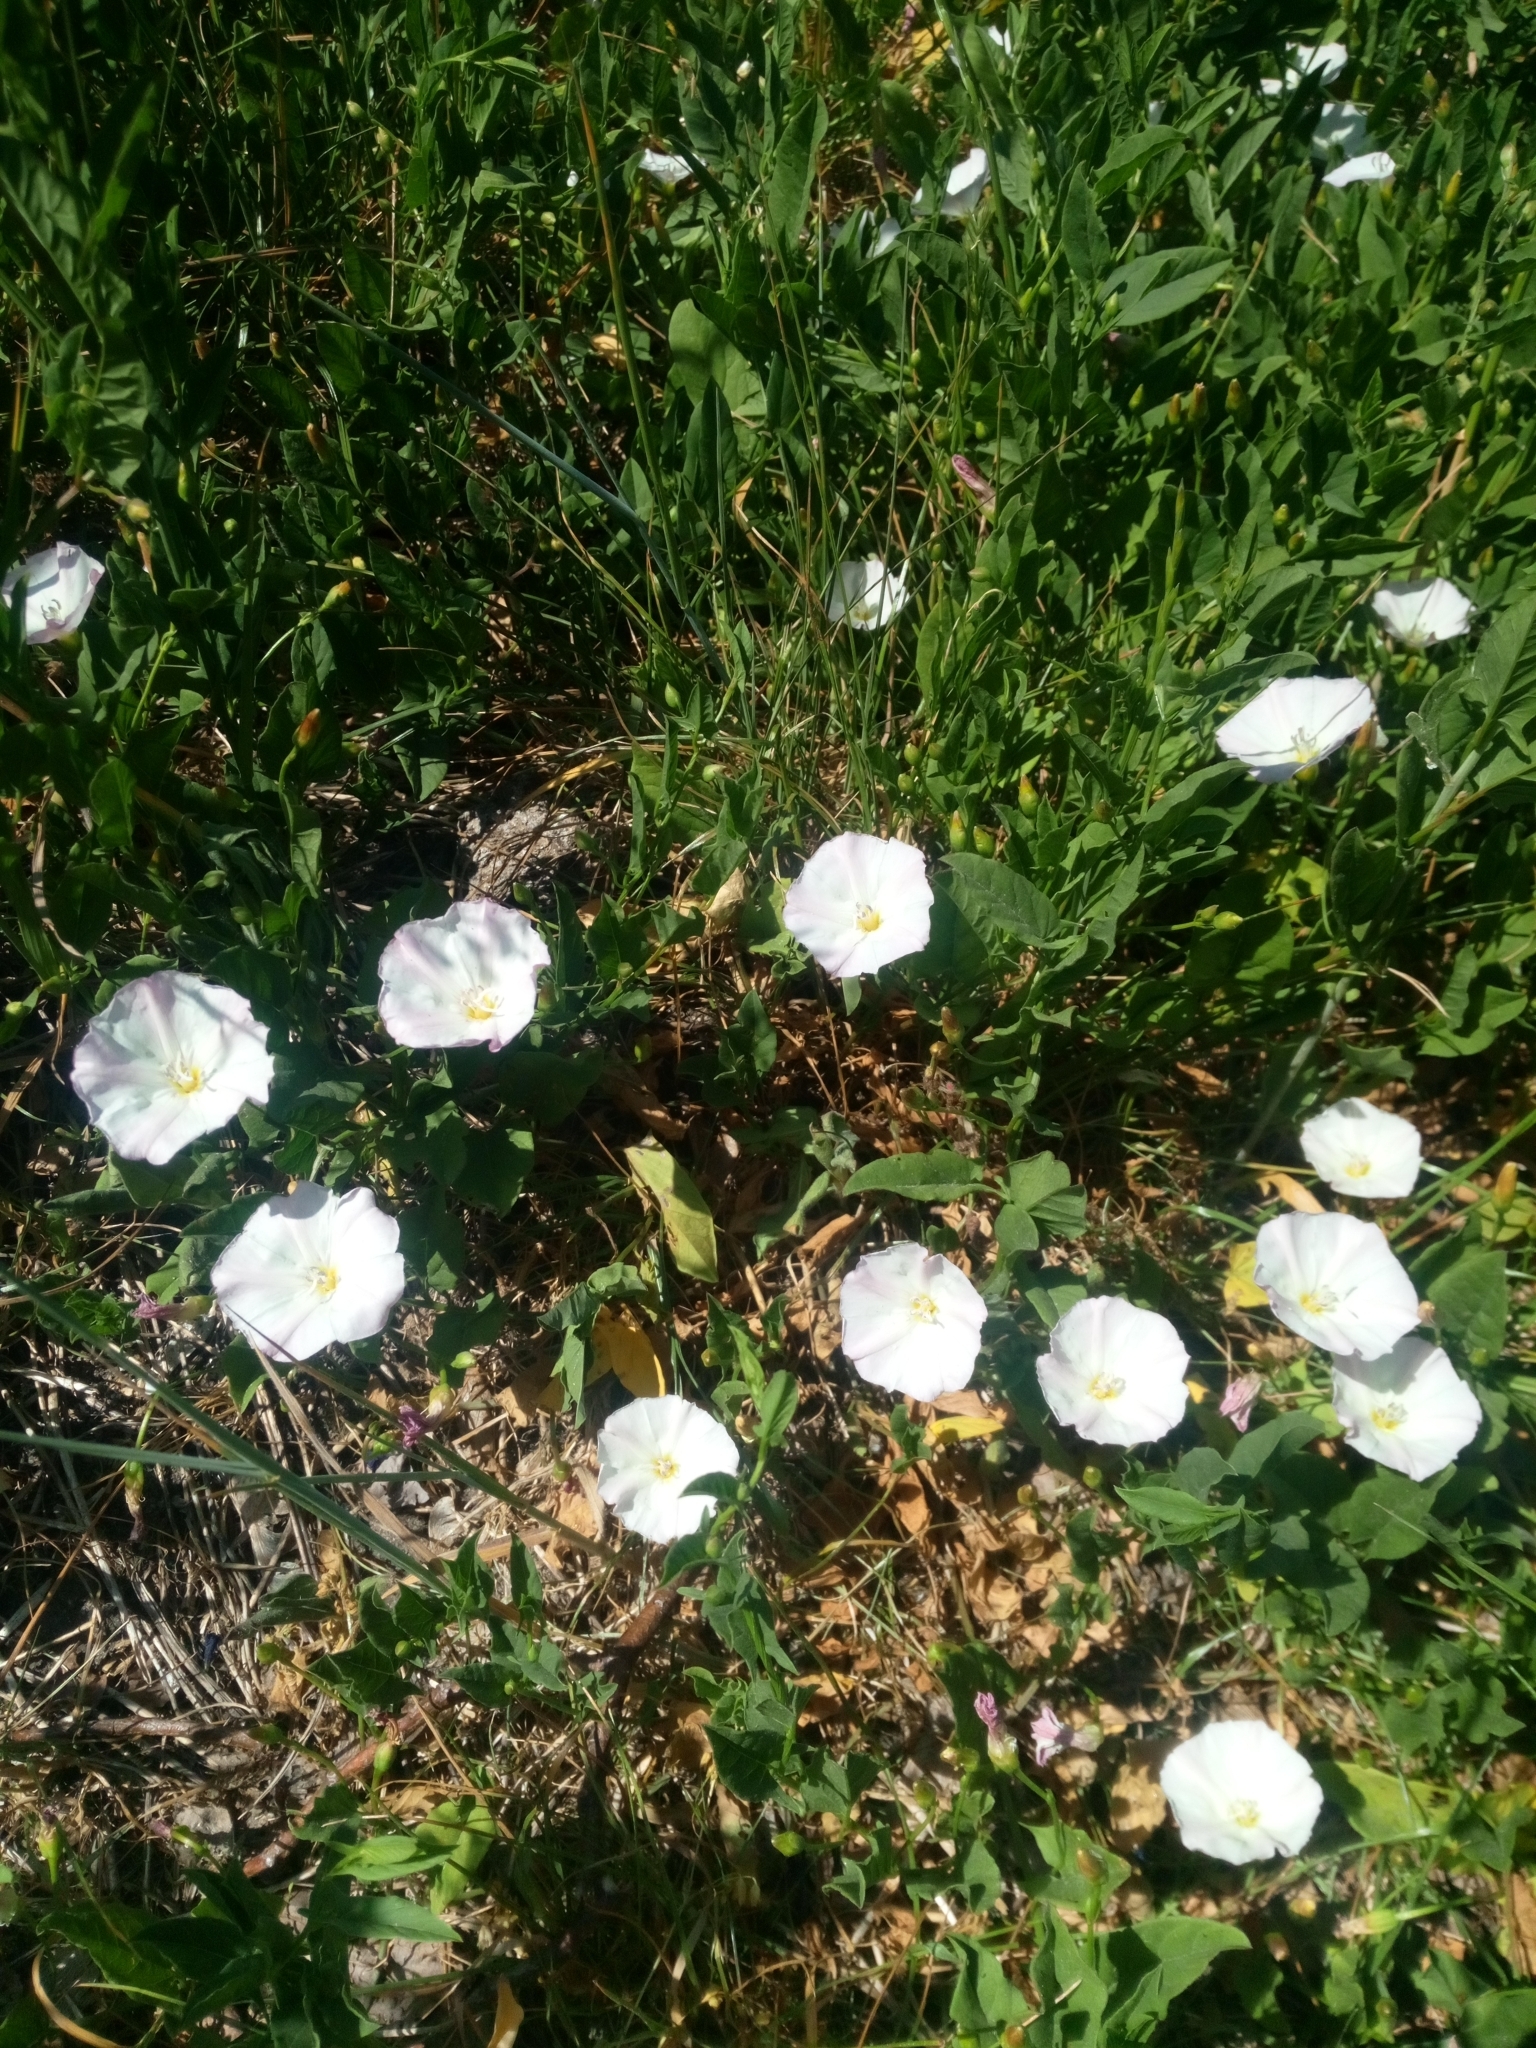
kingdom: Plantae
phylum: Tracheophyta
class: Magnoliopsida
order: Solanales
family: Convolvulaceae
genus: Convolvulus
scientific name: Convolvulus arvensis
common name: Field bindweed
